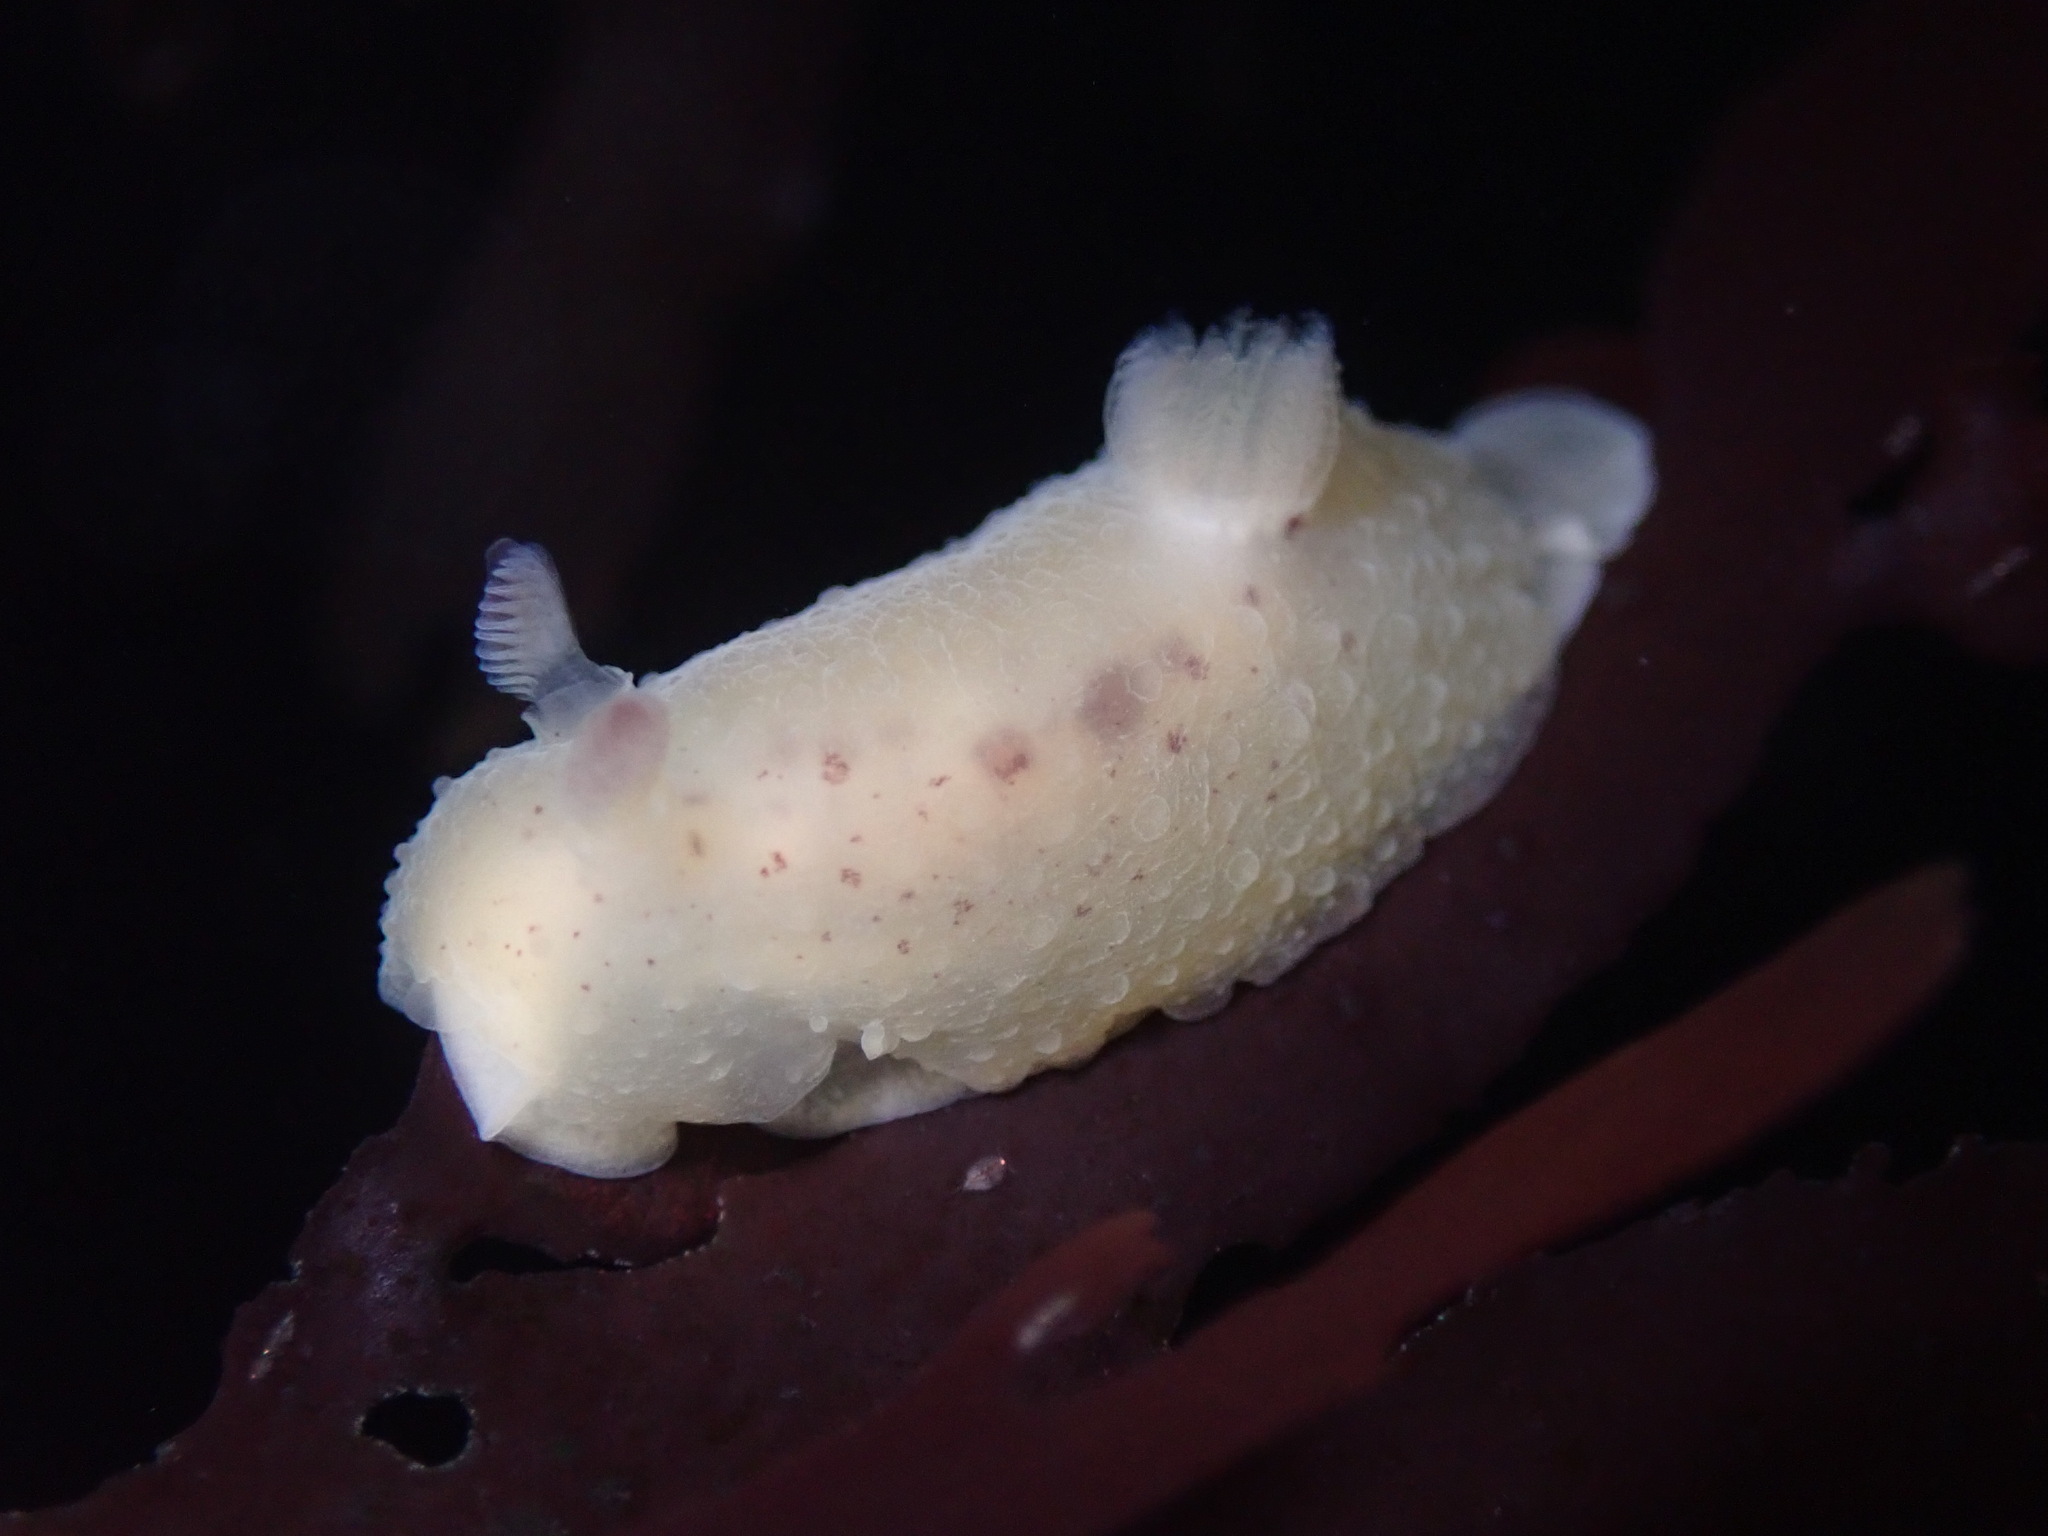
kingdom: Animalia
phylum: Mollusca
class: Gastropoda
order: Nudibranchia
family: Actinocyclidae
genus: Hallaxa
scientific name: Hallaxa chani
